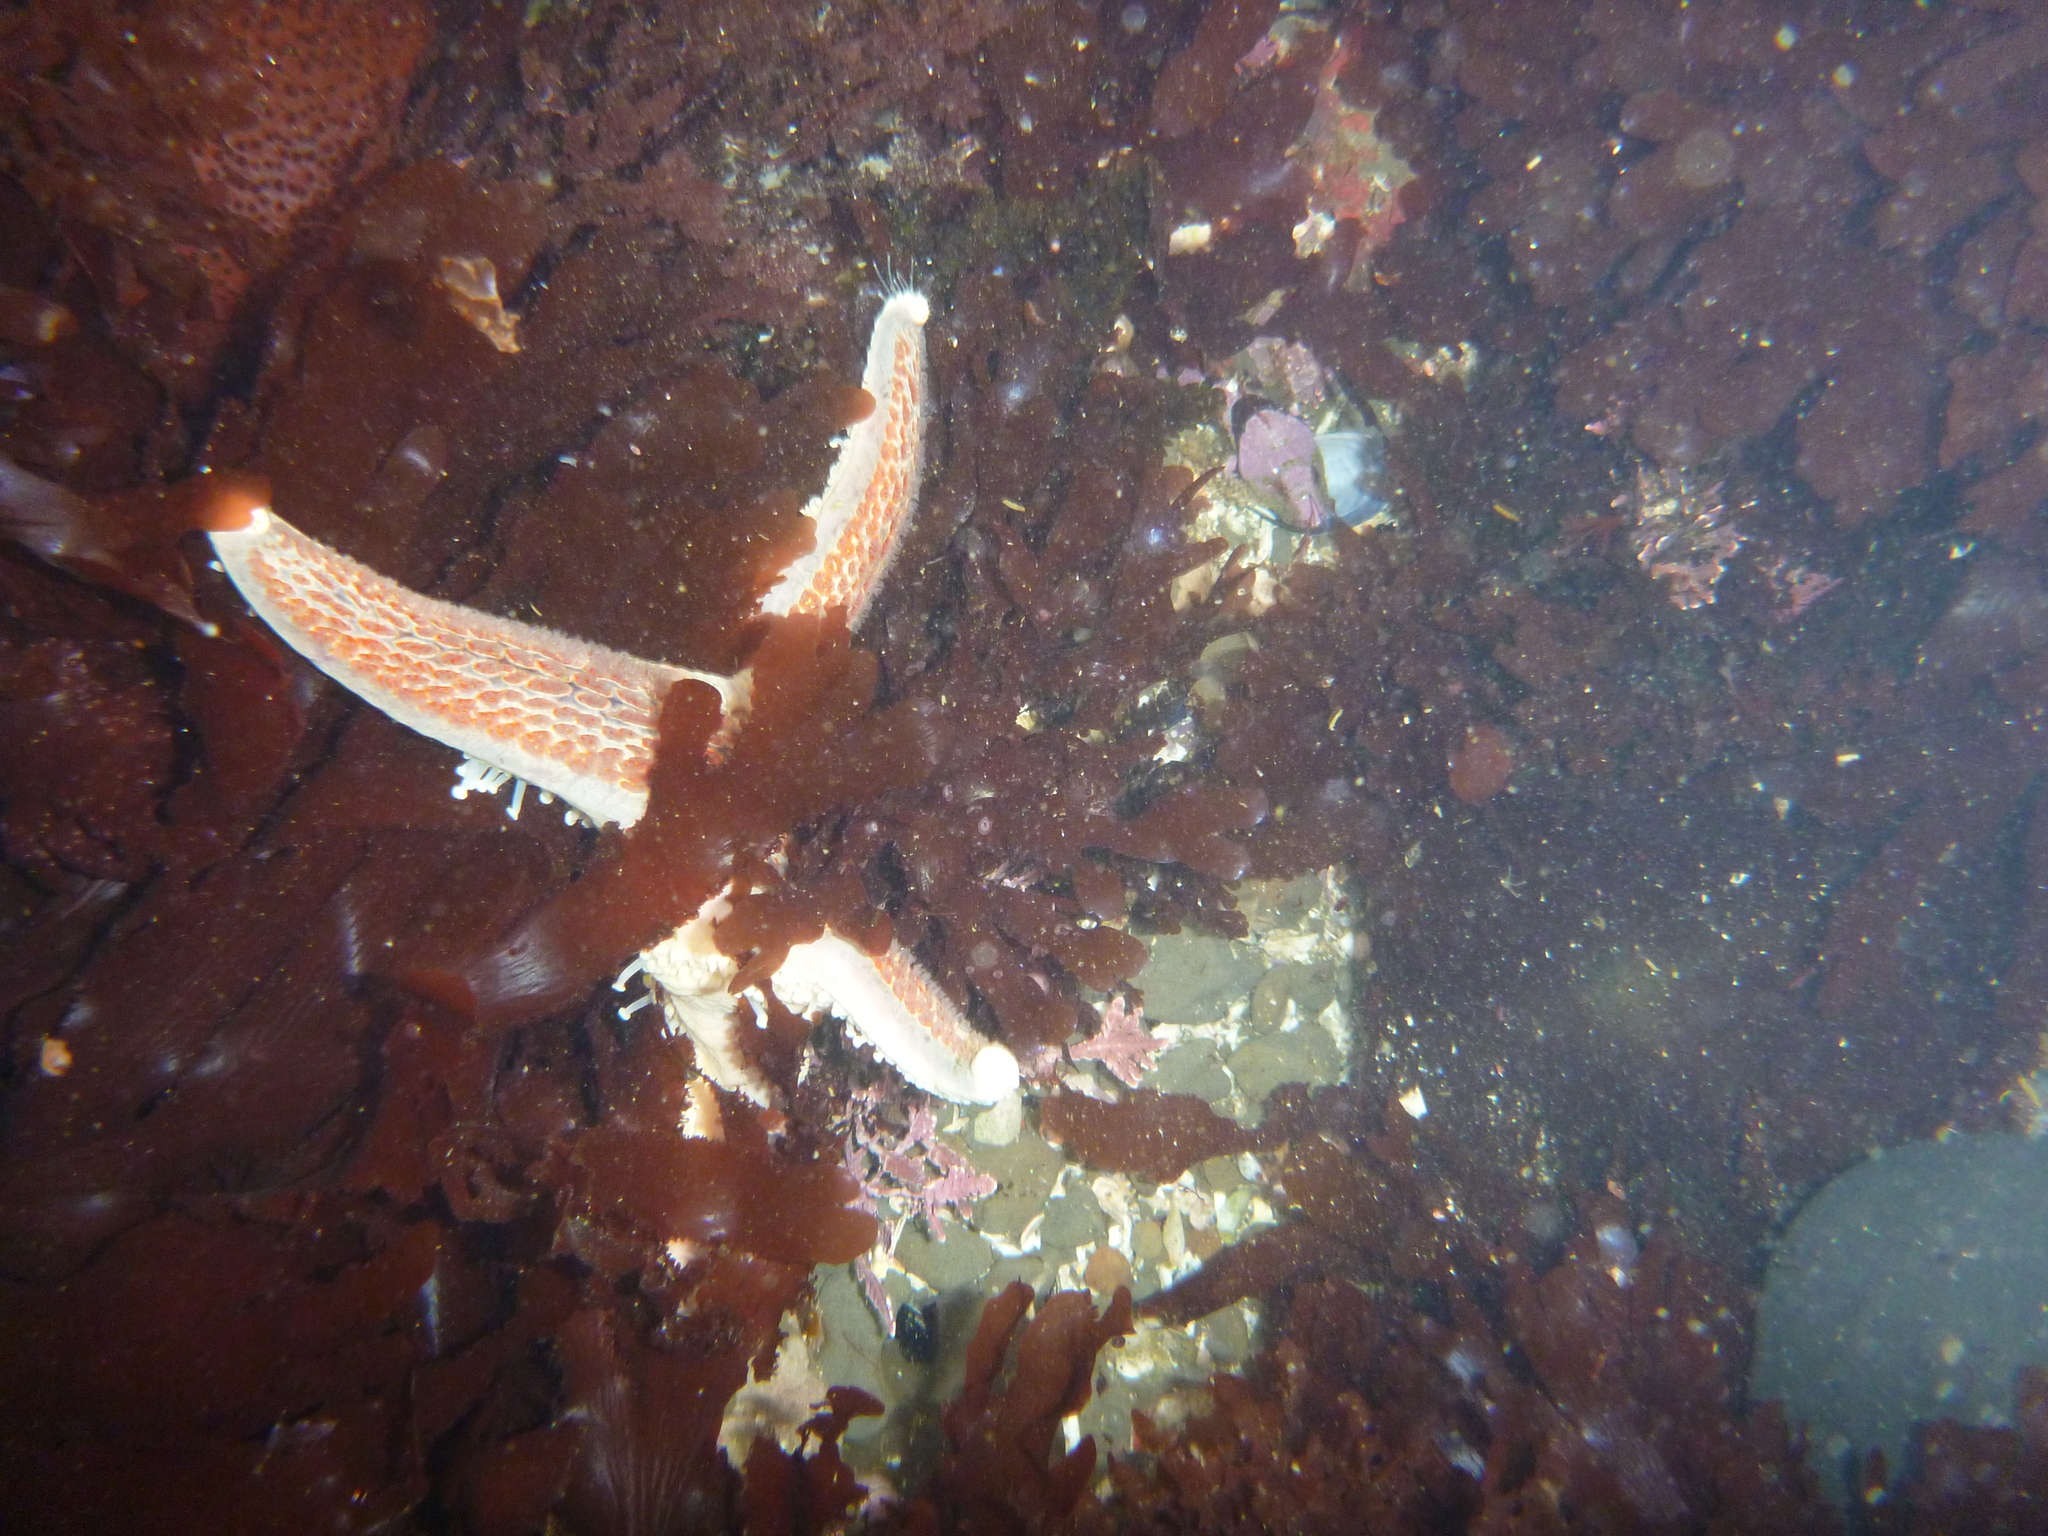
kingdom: Animalia
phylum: Echinodermata
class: Asteroidea
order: Valvatida
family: Asteropseidae
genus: Dermasterias
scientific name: Dermasterias imbricata
